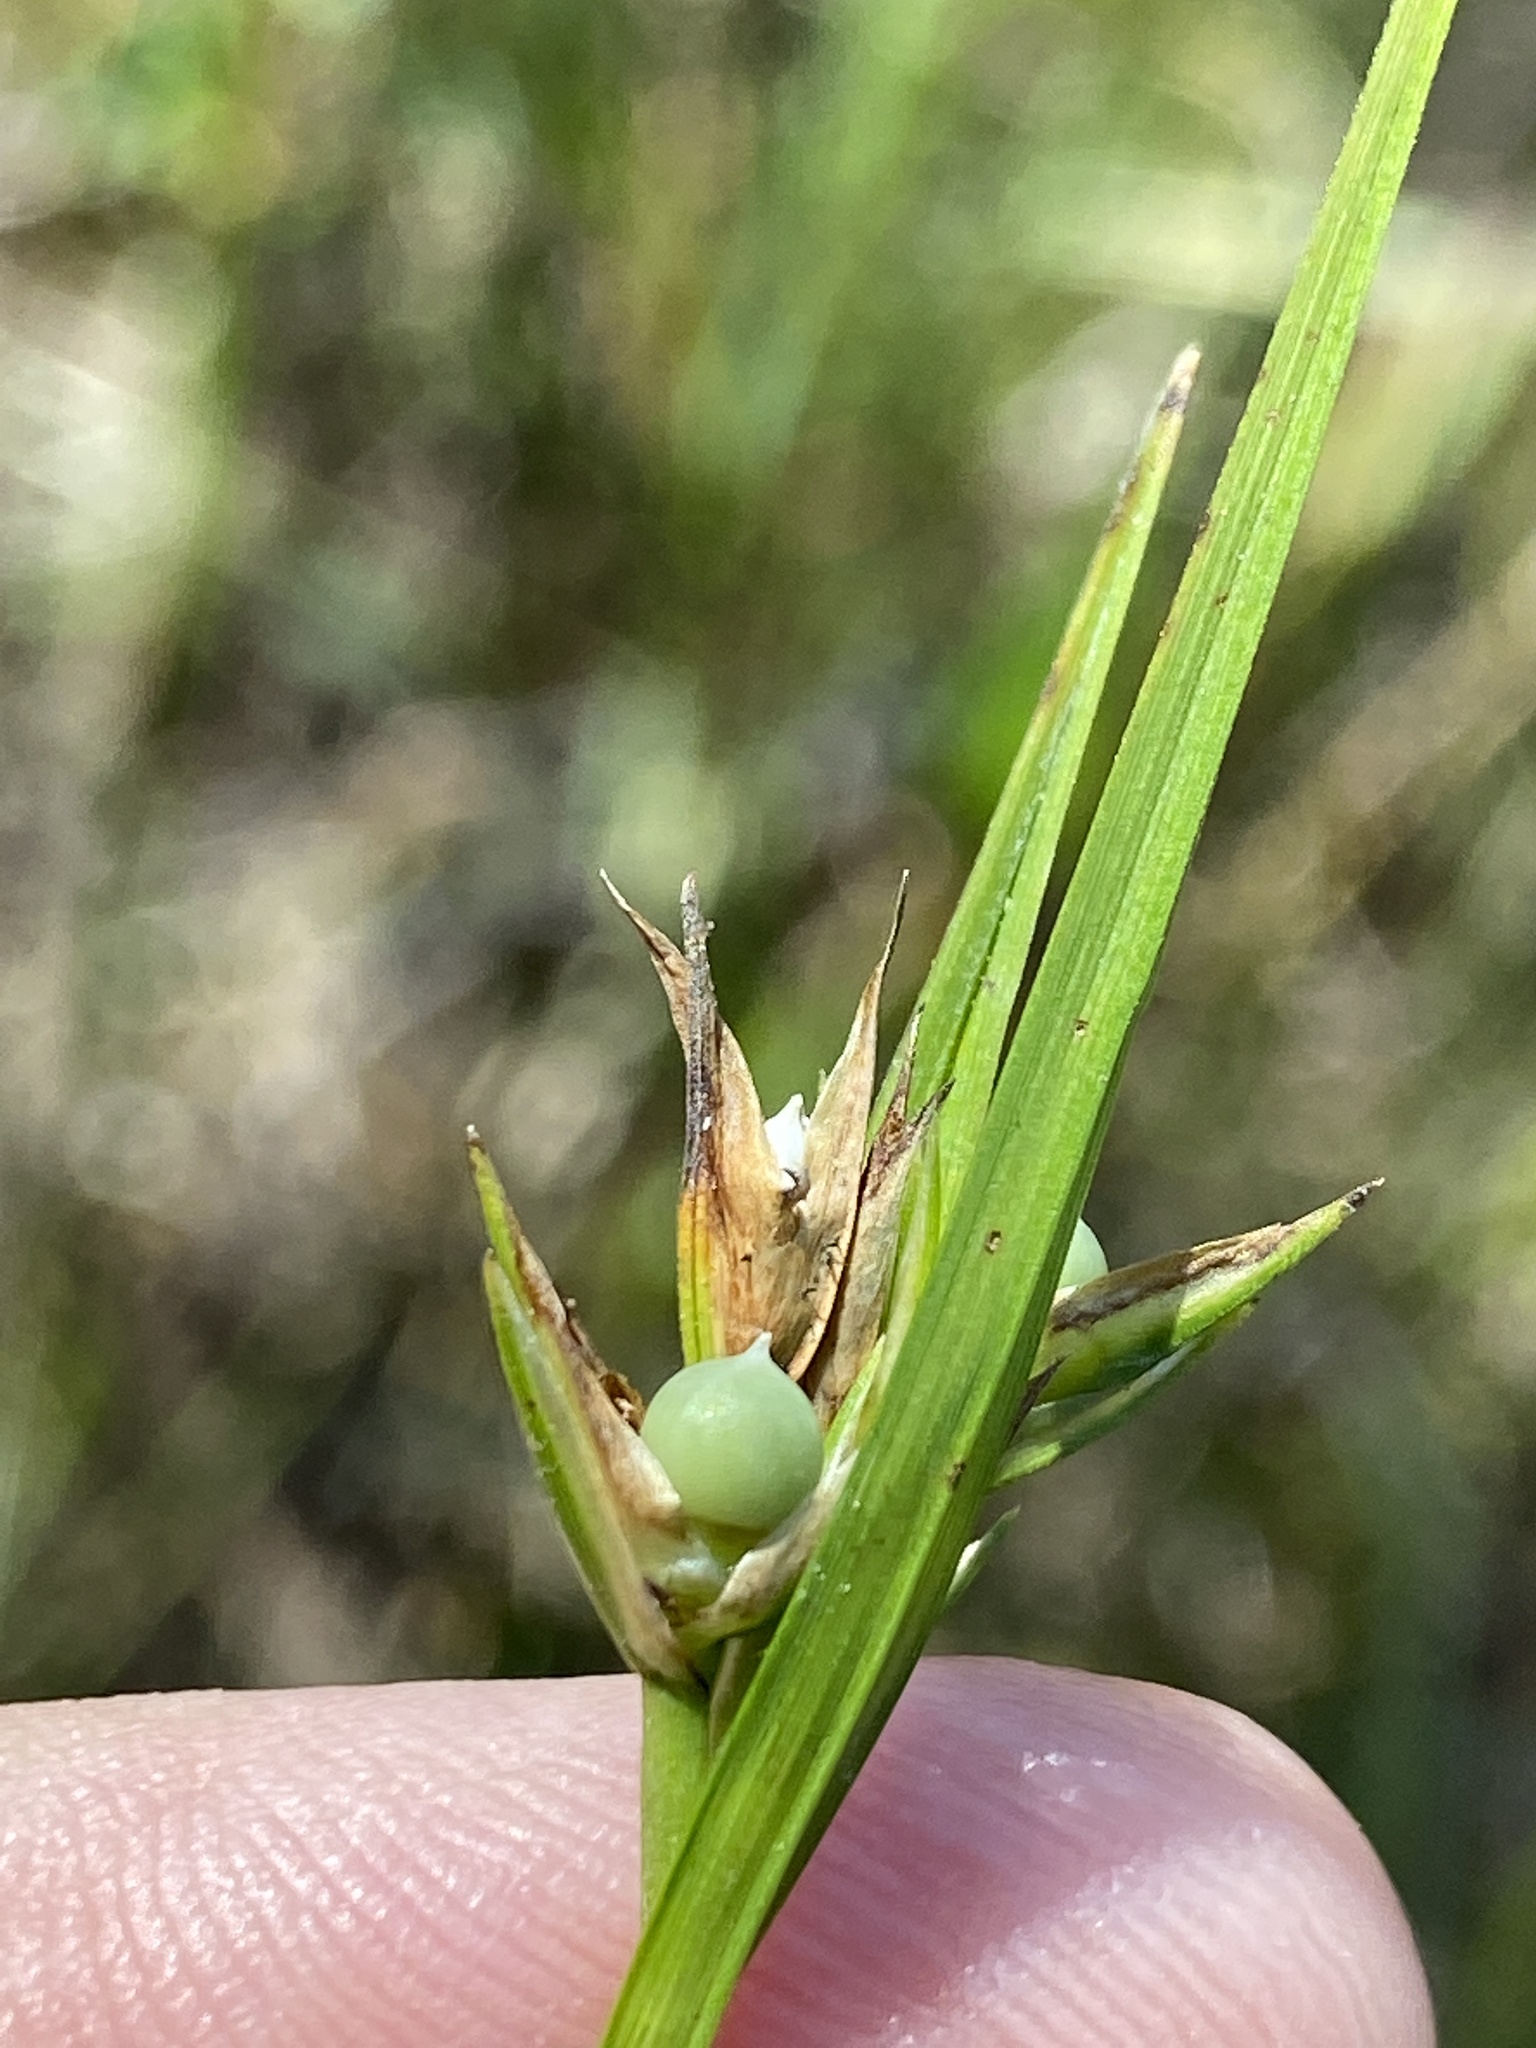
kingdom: Plantae
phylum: Tracheophyta
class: Liliopsida
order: Poales
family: Cyperaceae
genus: Scleria
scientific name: Scleria baldwinii
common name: Baldwin's nutrush
